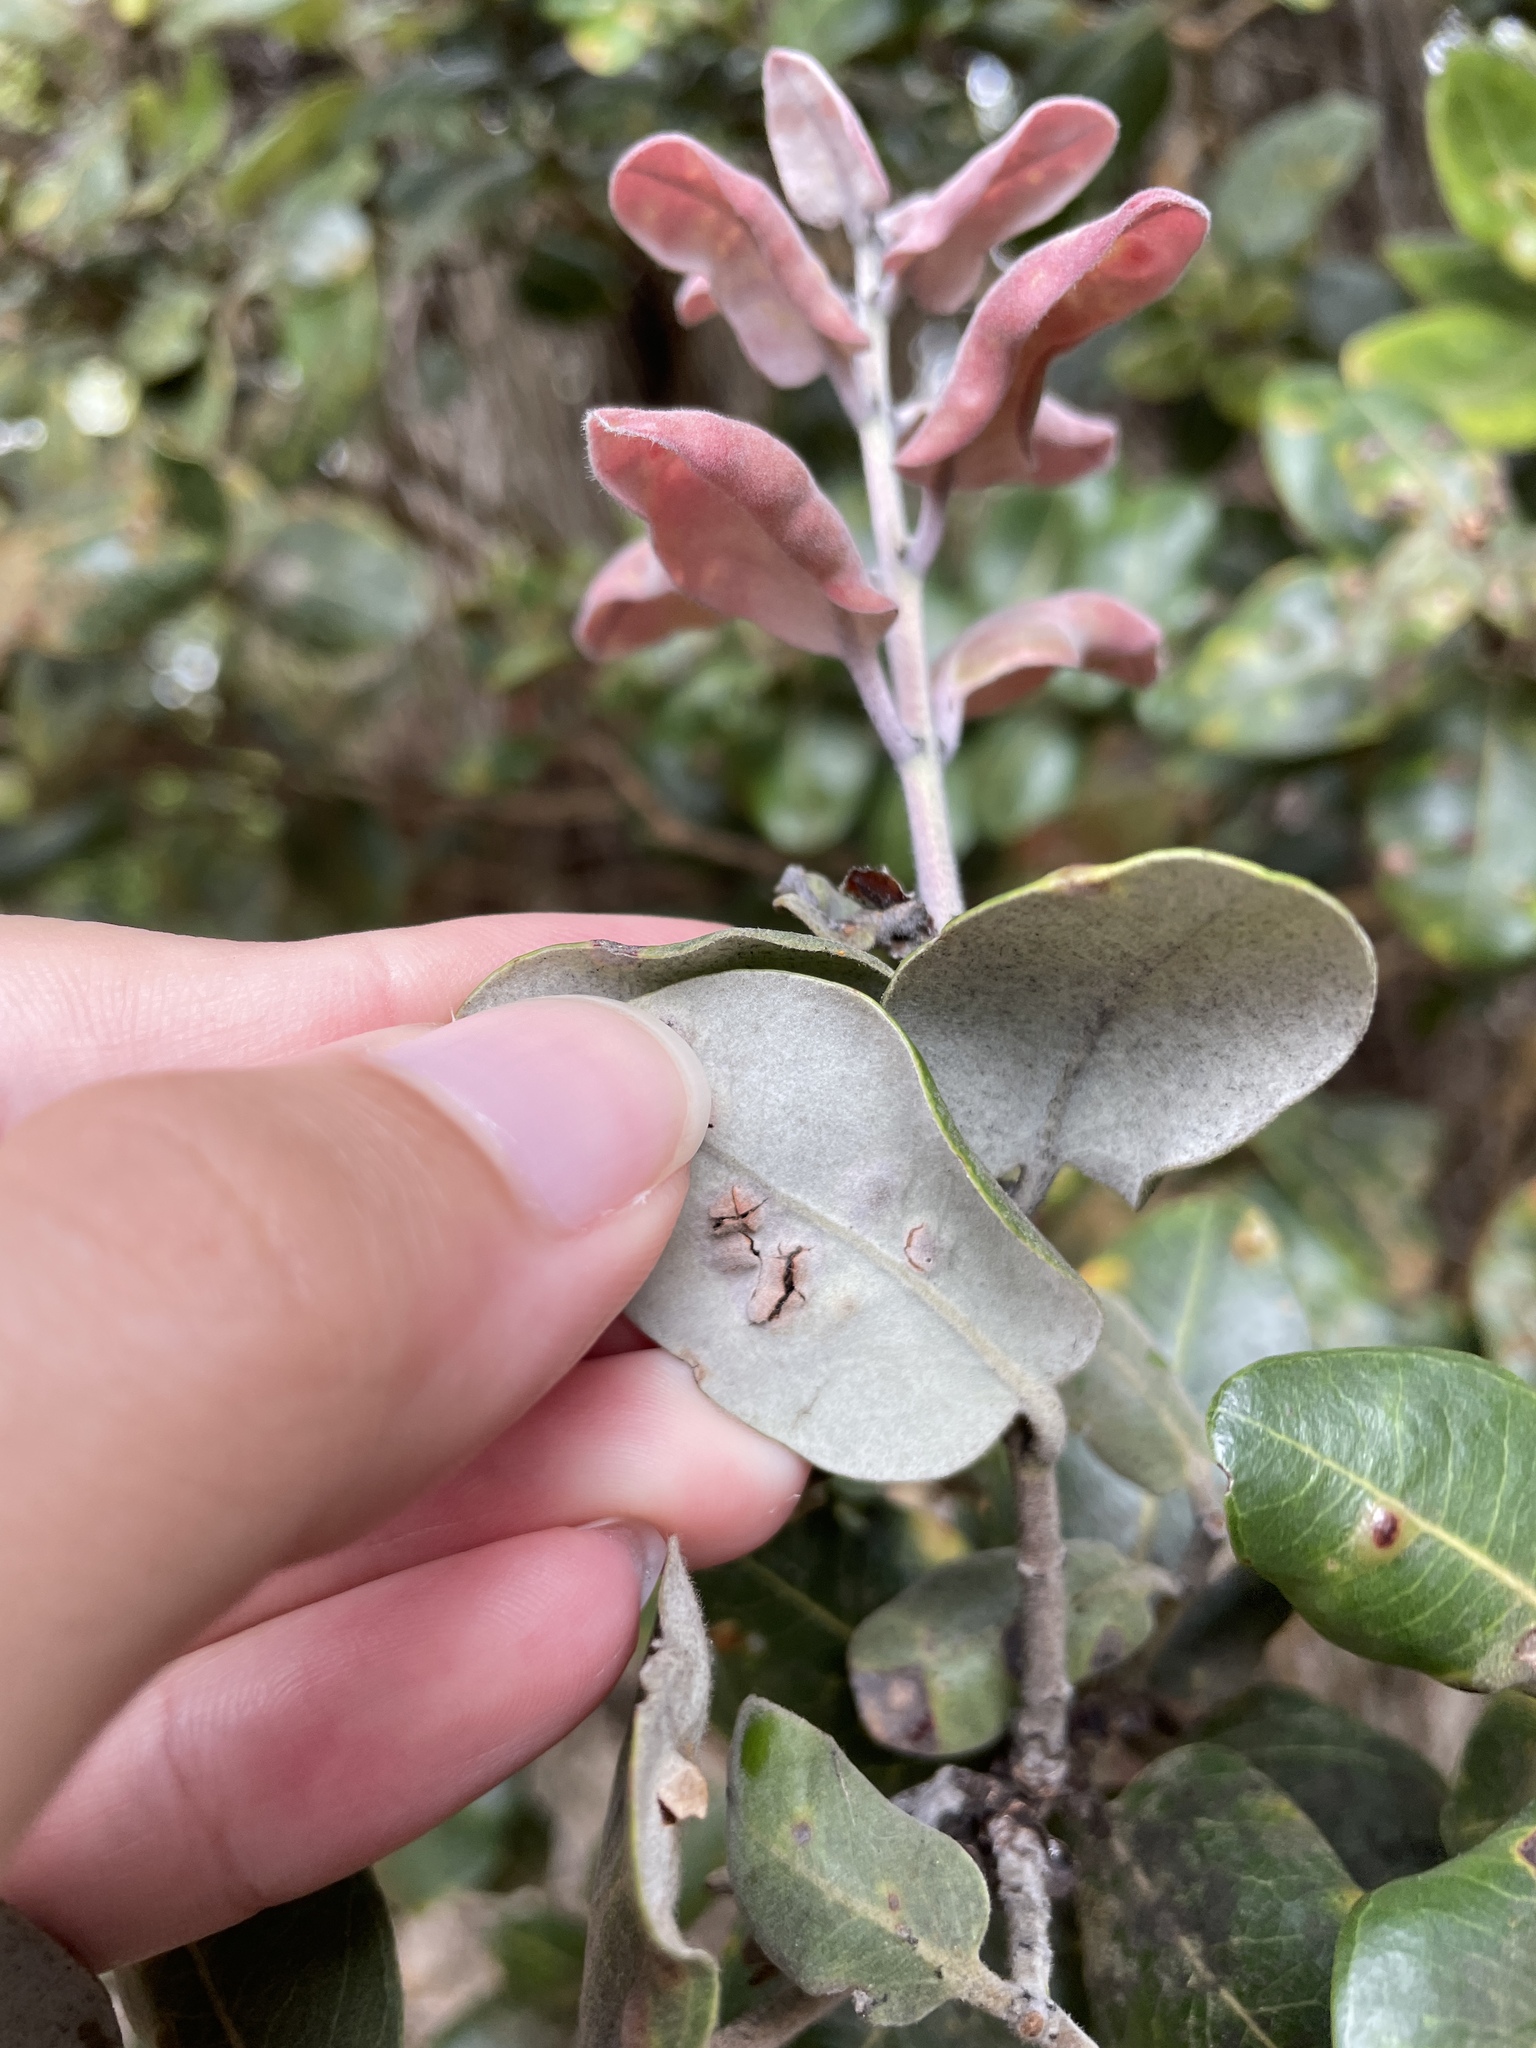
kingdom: Plantae
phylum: Tracheophyta
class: Magnoliopsida
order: Myrtales
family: Myrtaceae
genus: Metrosideros
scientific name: Metrosideros polymorpha
